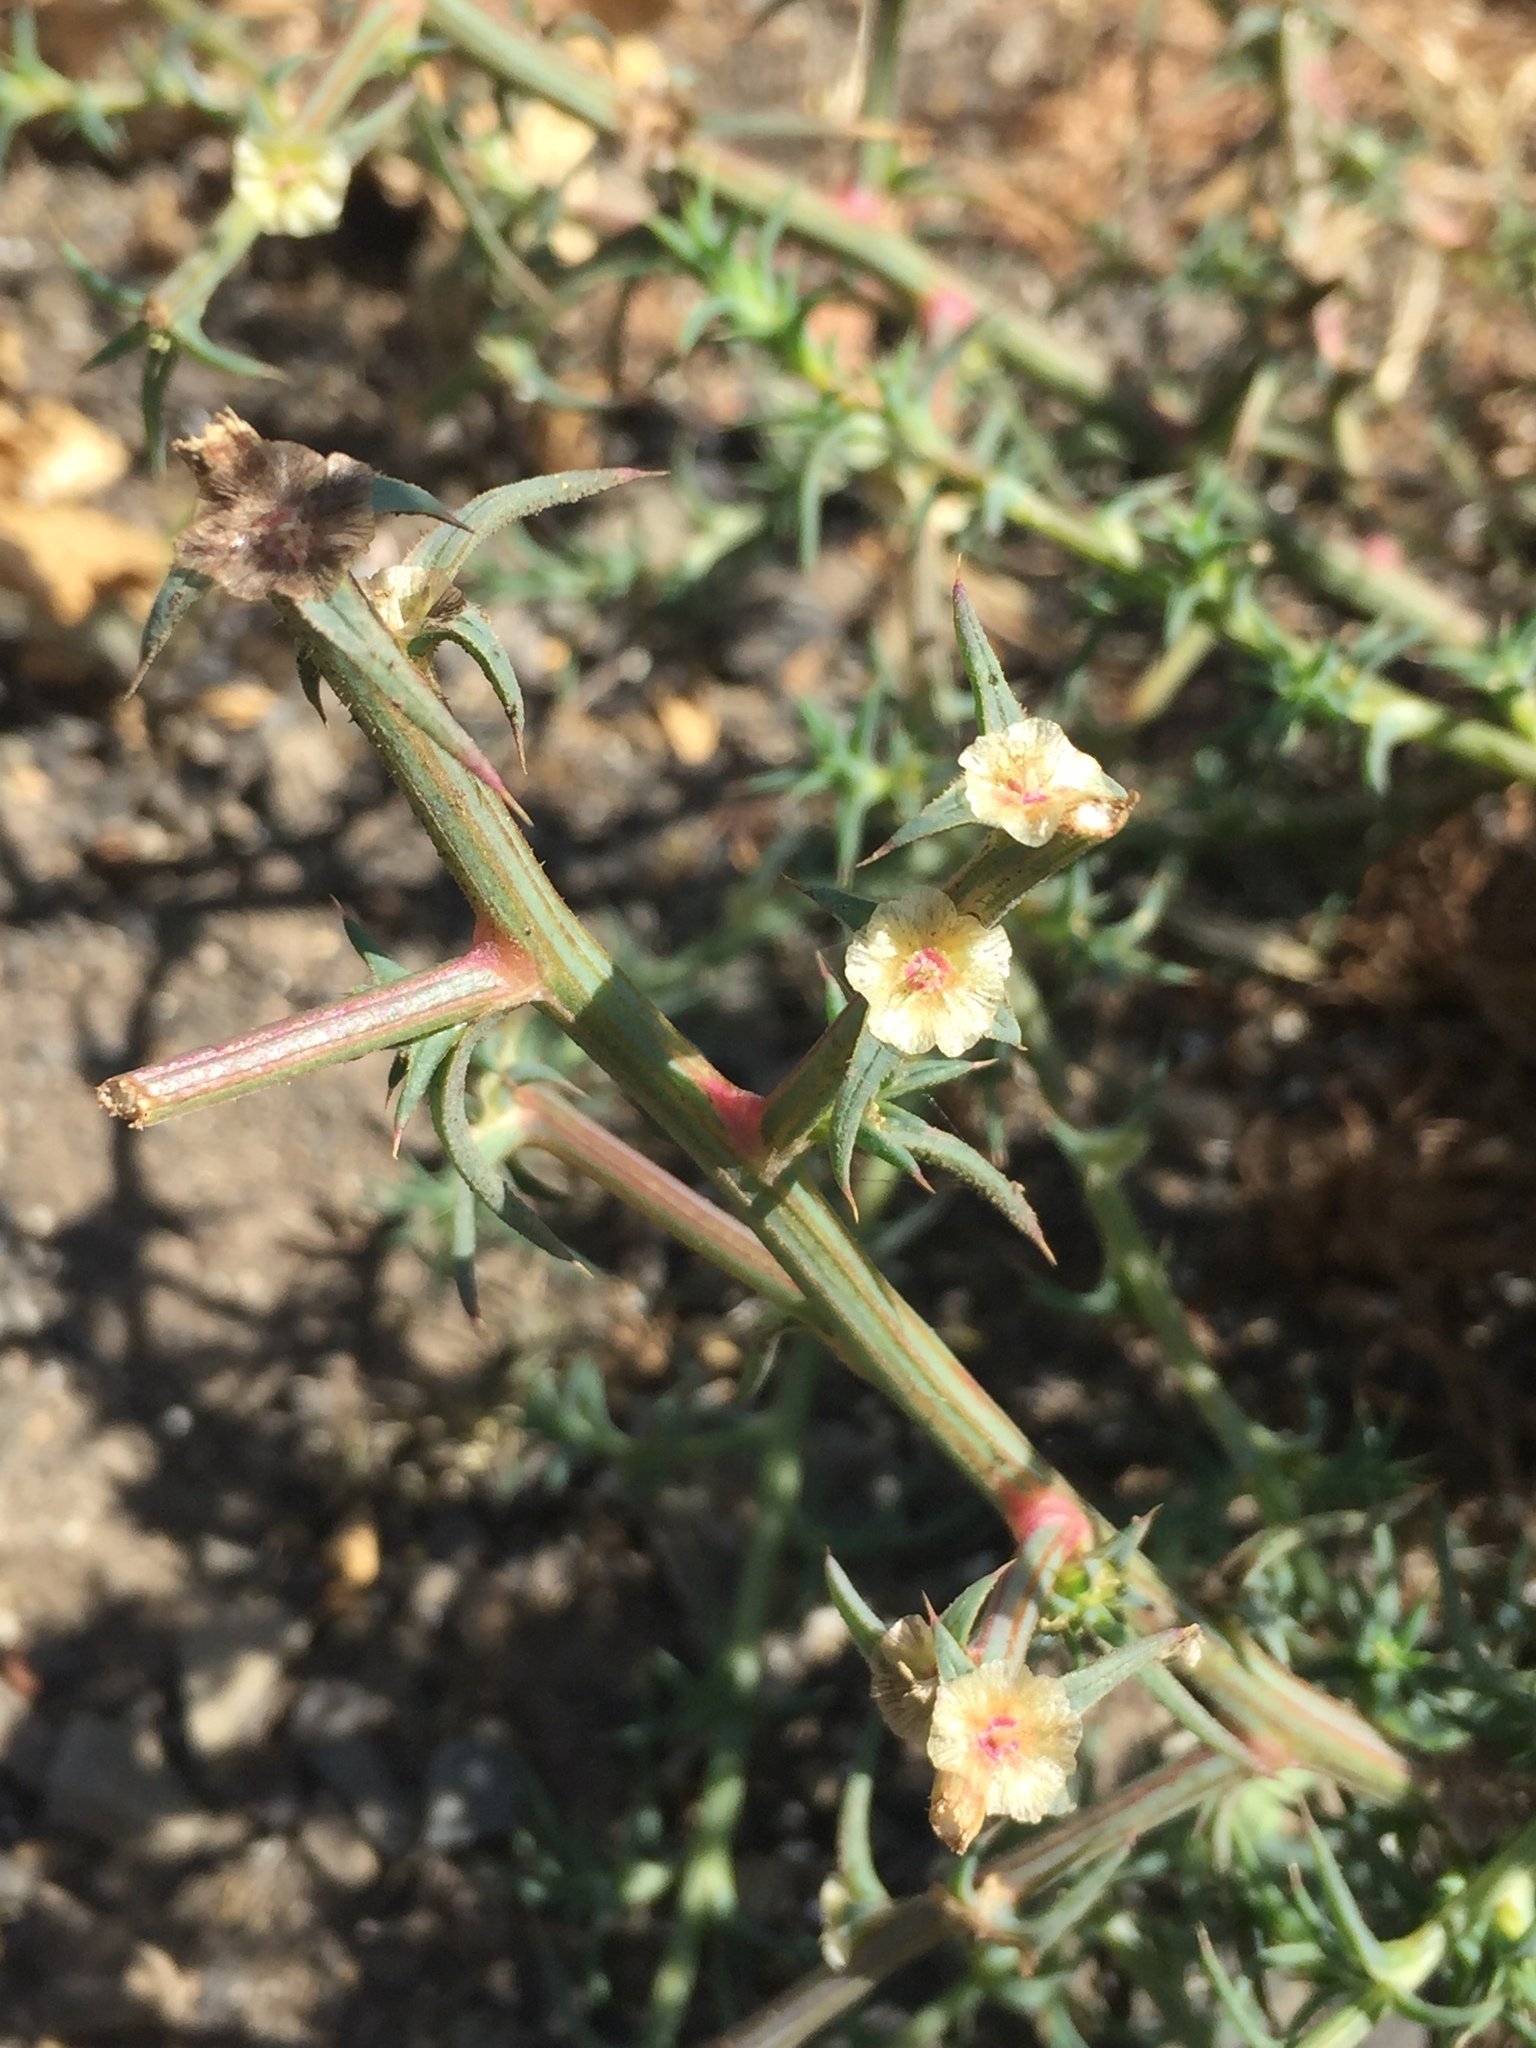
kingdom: Plantae
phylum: Tracheophyta
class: Magnoliopsida
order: Caryophyllales
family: Amaranthaceae
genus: Salsola
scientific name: Salsola australis
